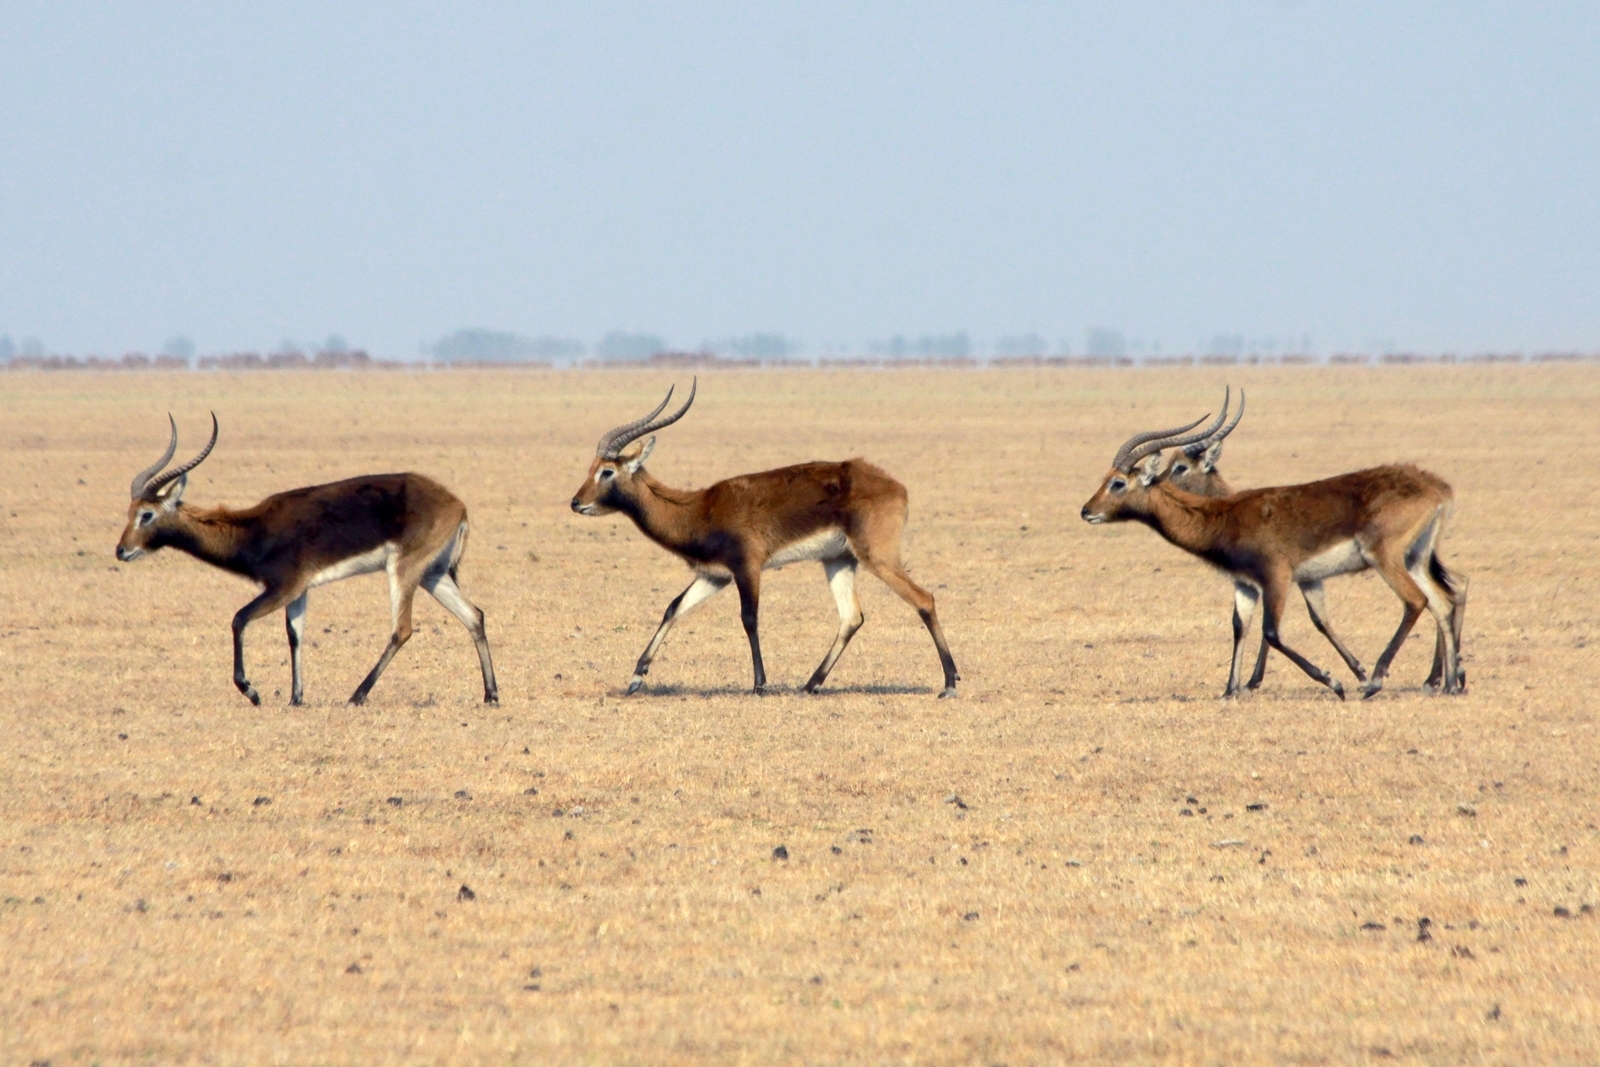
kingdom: Animalia
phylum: Chordata
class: Mammalia
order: Artiodactyla
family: Bovidae
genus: Kobus
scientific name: Kobus leche
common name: Lechwe
